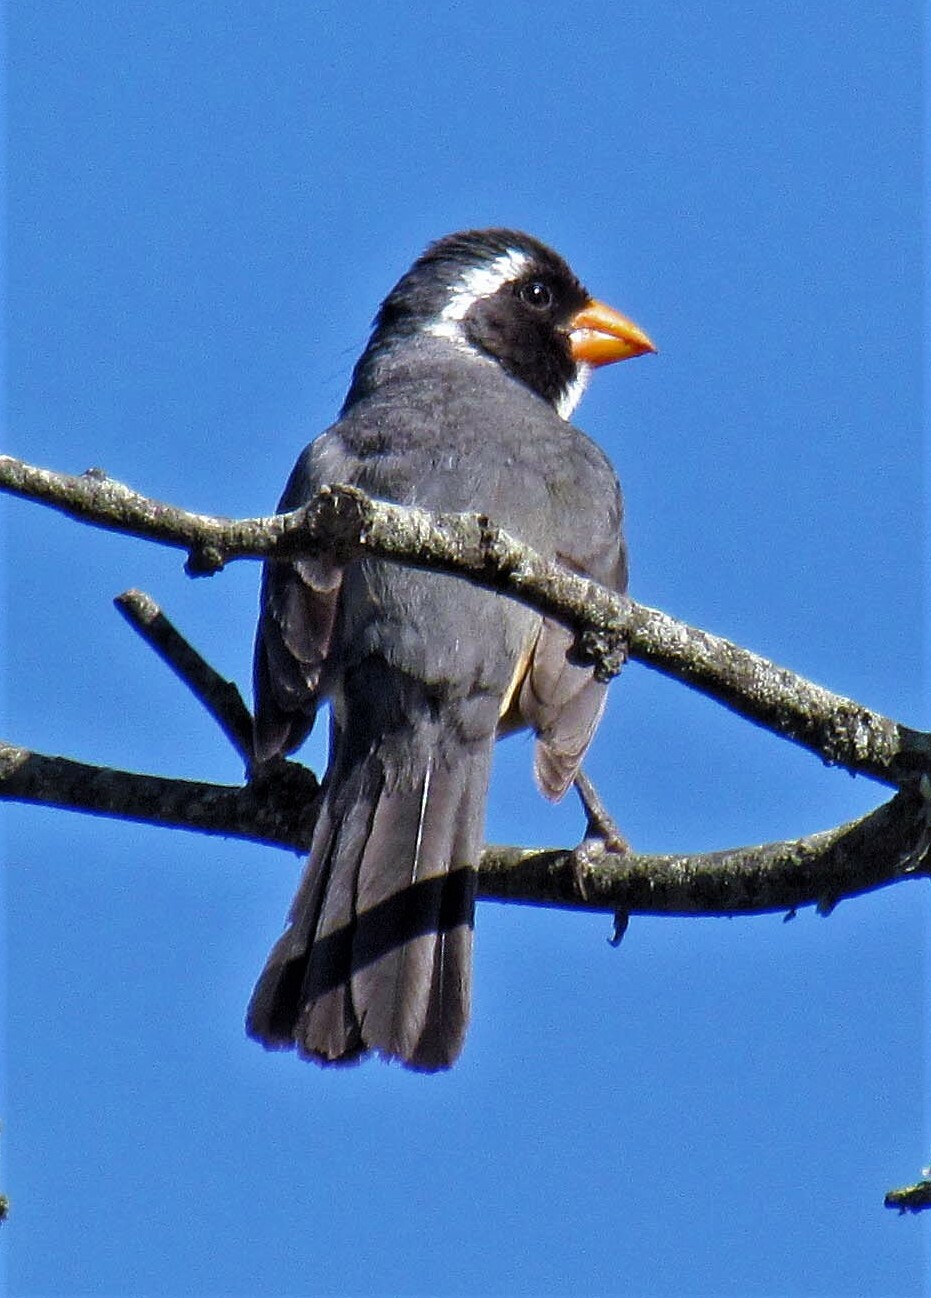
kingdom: Animalia
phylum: Chordata
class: Aves
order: Passeriformes
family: Thraupidae
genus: Saltator
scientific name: Saltator aurantiirostris
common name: Golden-billed saltator
